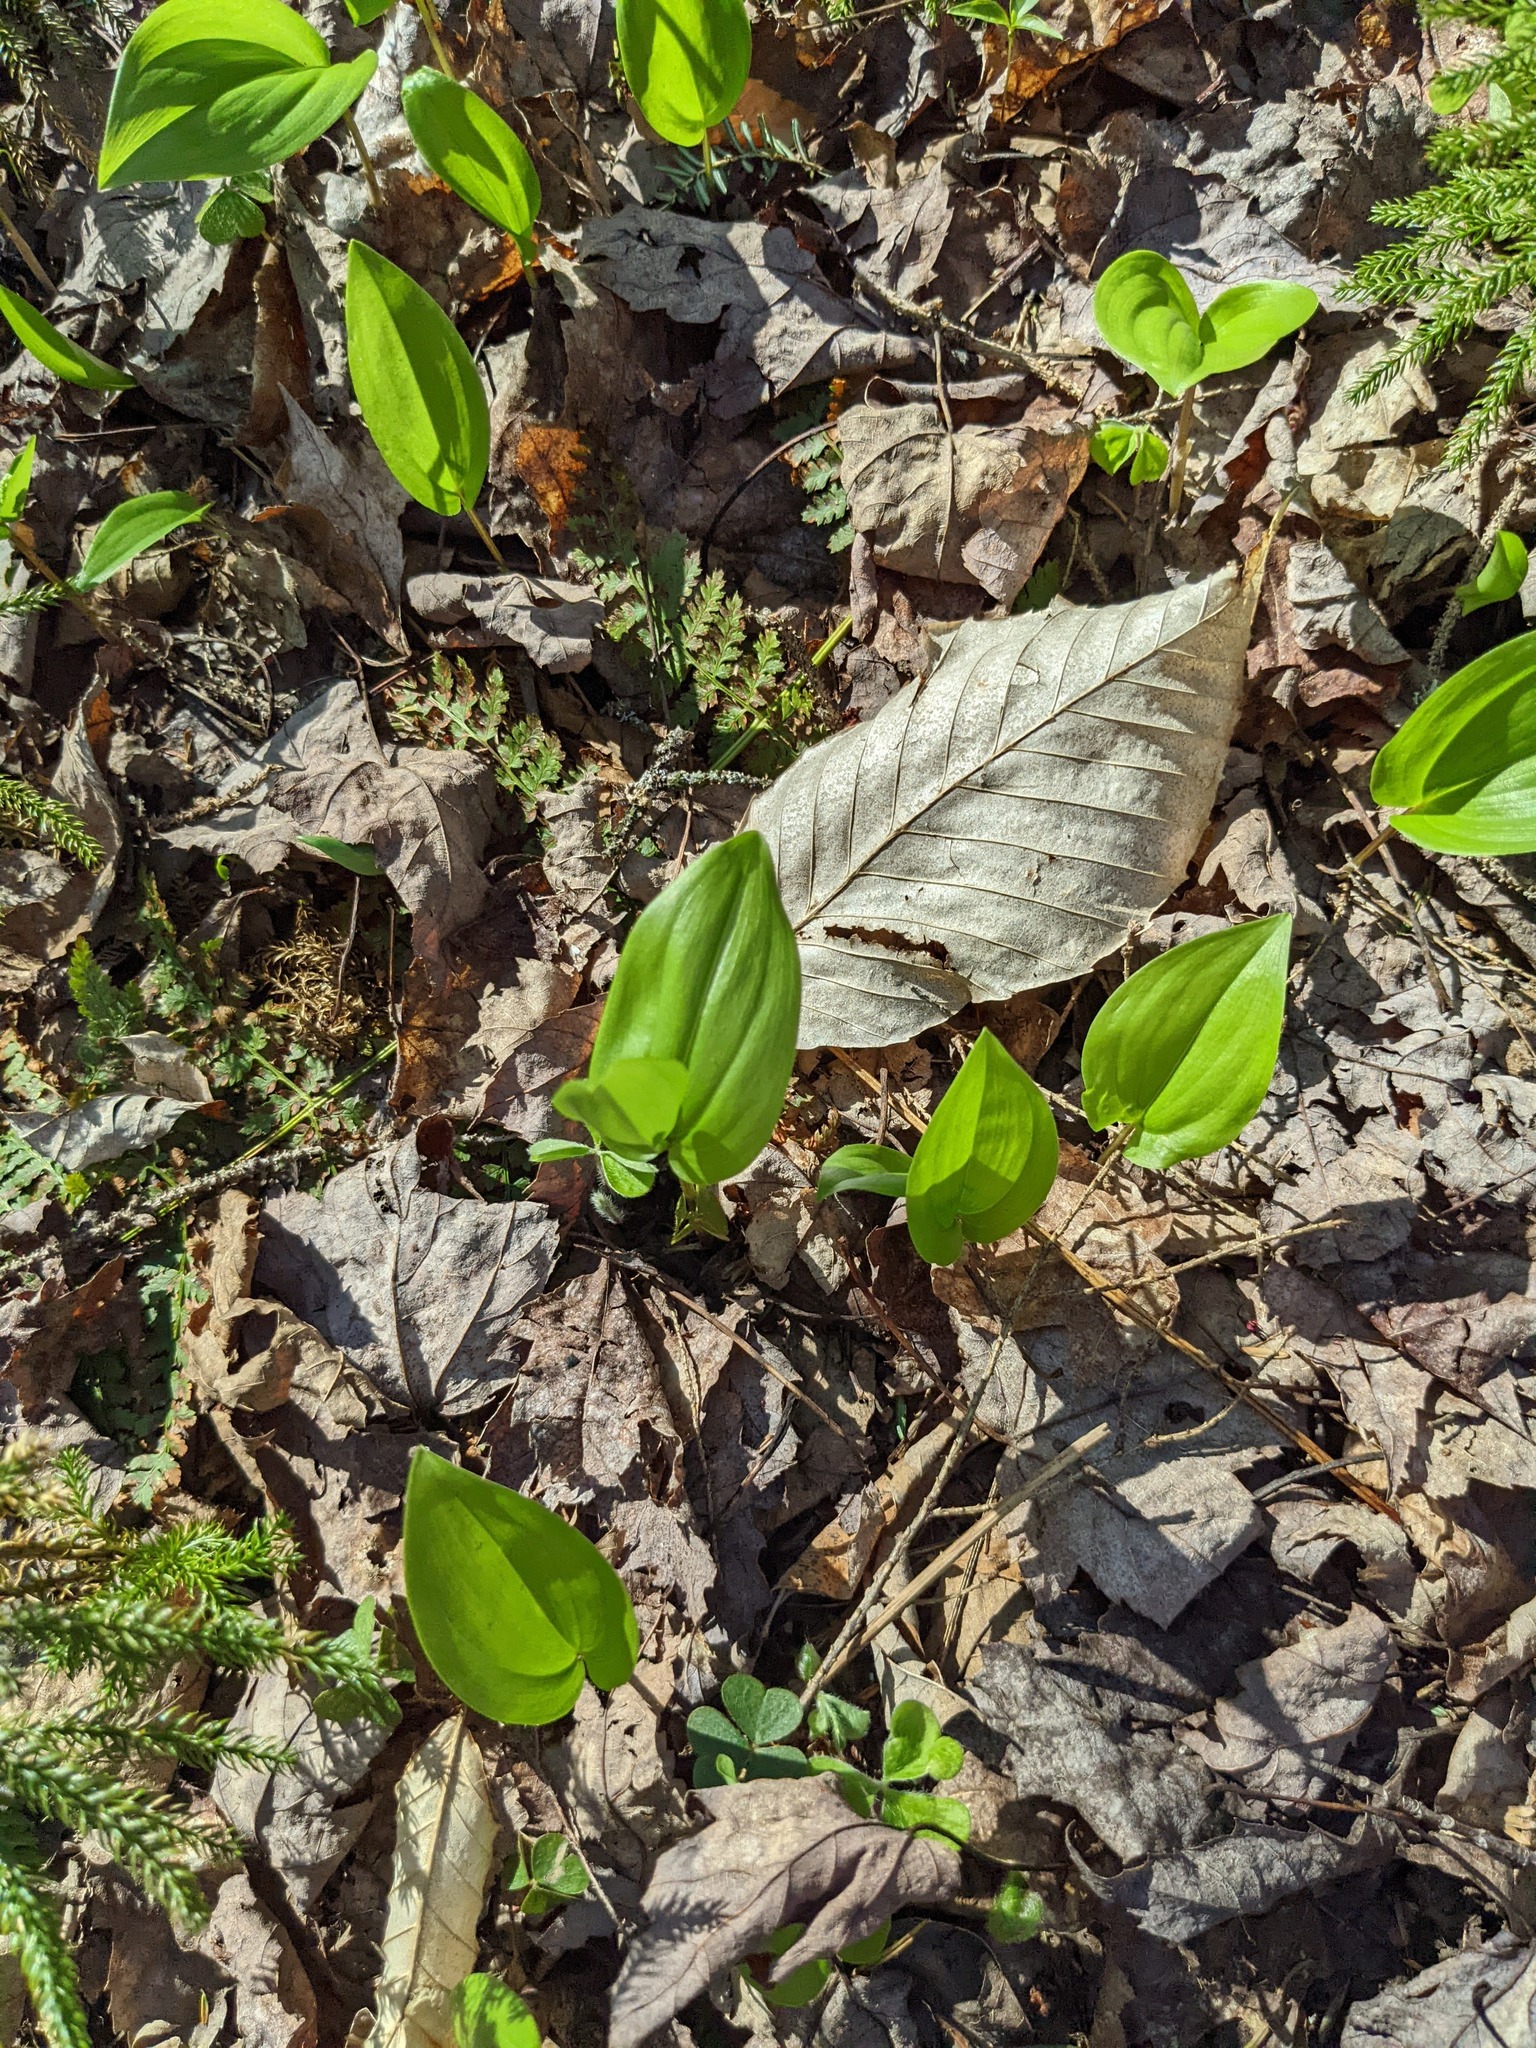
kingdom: Plantae
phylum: Tracheophyta
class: Magnoliopsida
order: Fagales
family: Fagaceae
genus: Fagus
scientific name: Fagus grandifolia
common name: American beech
